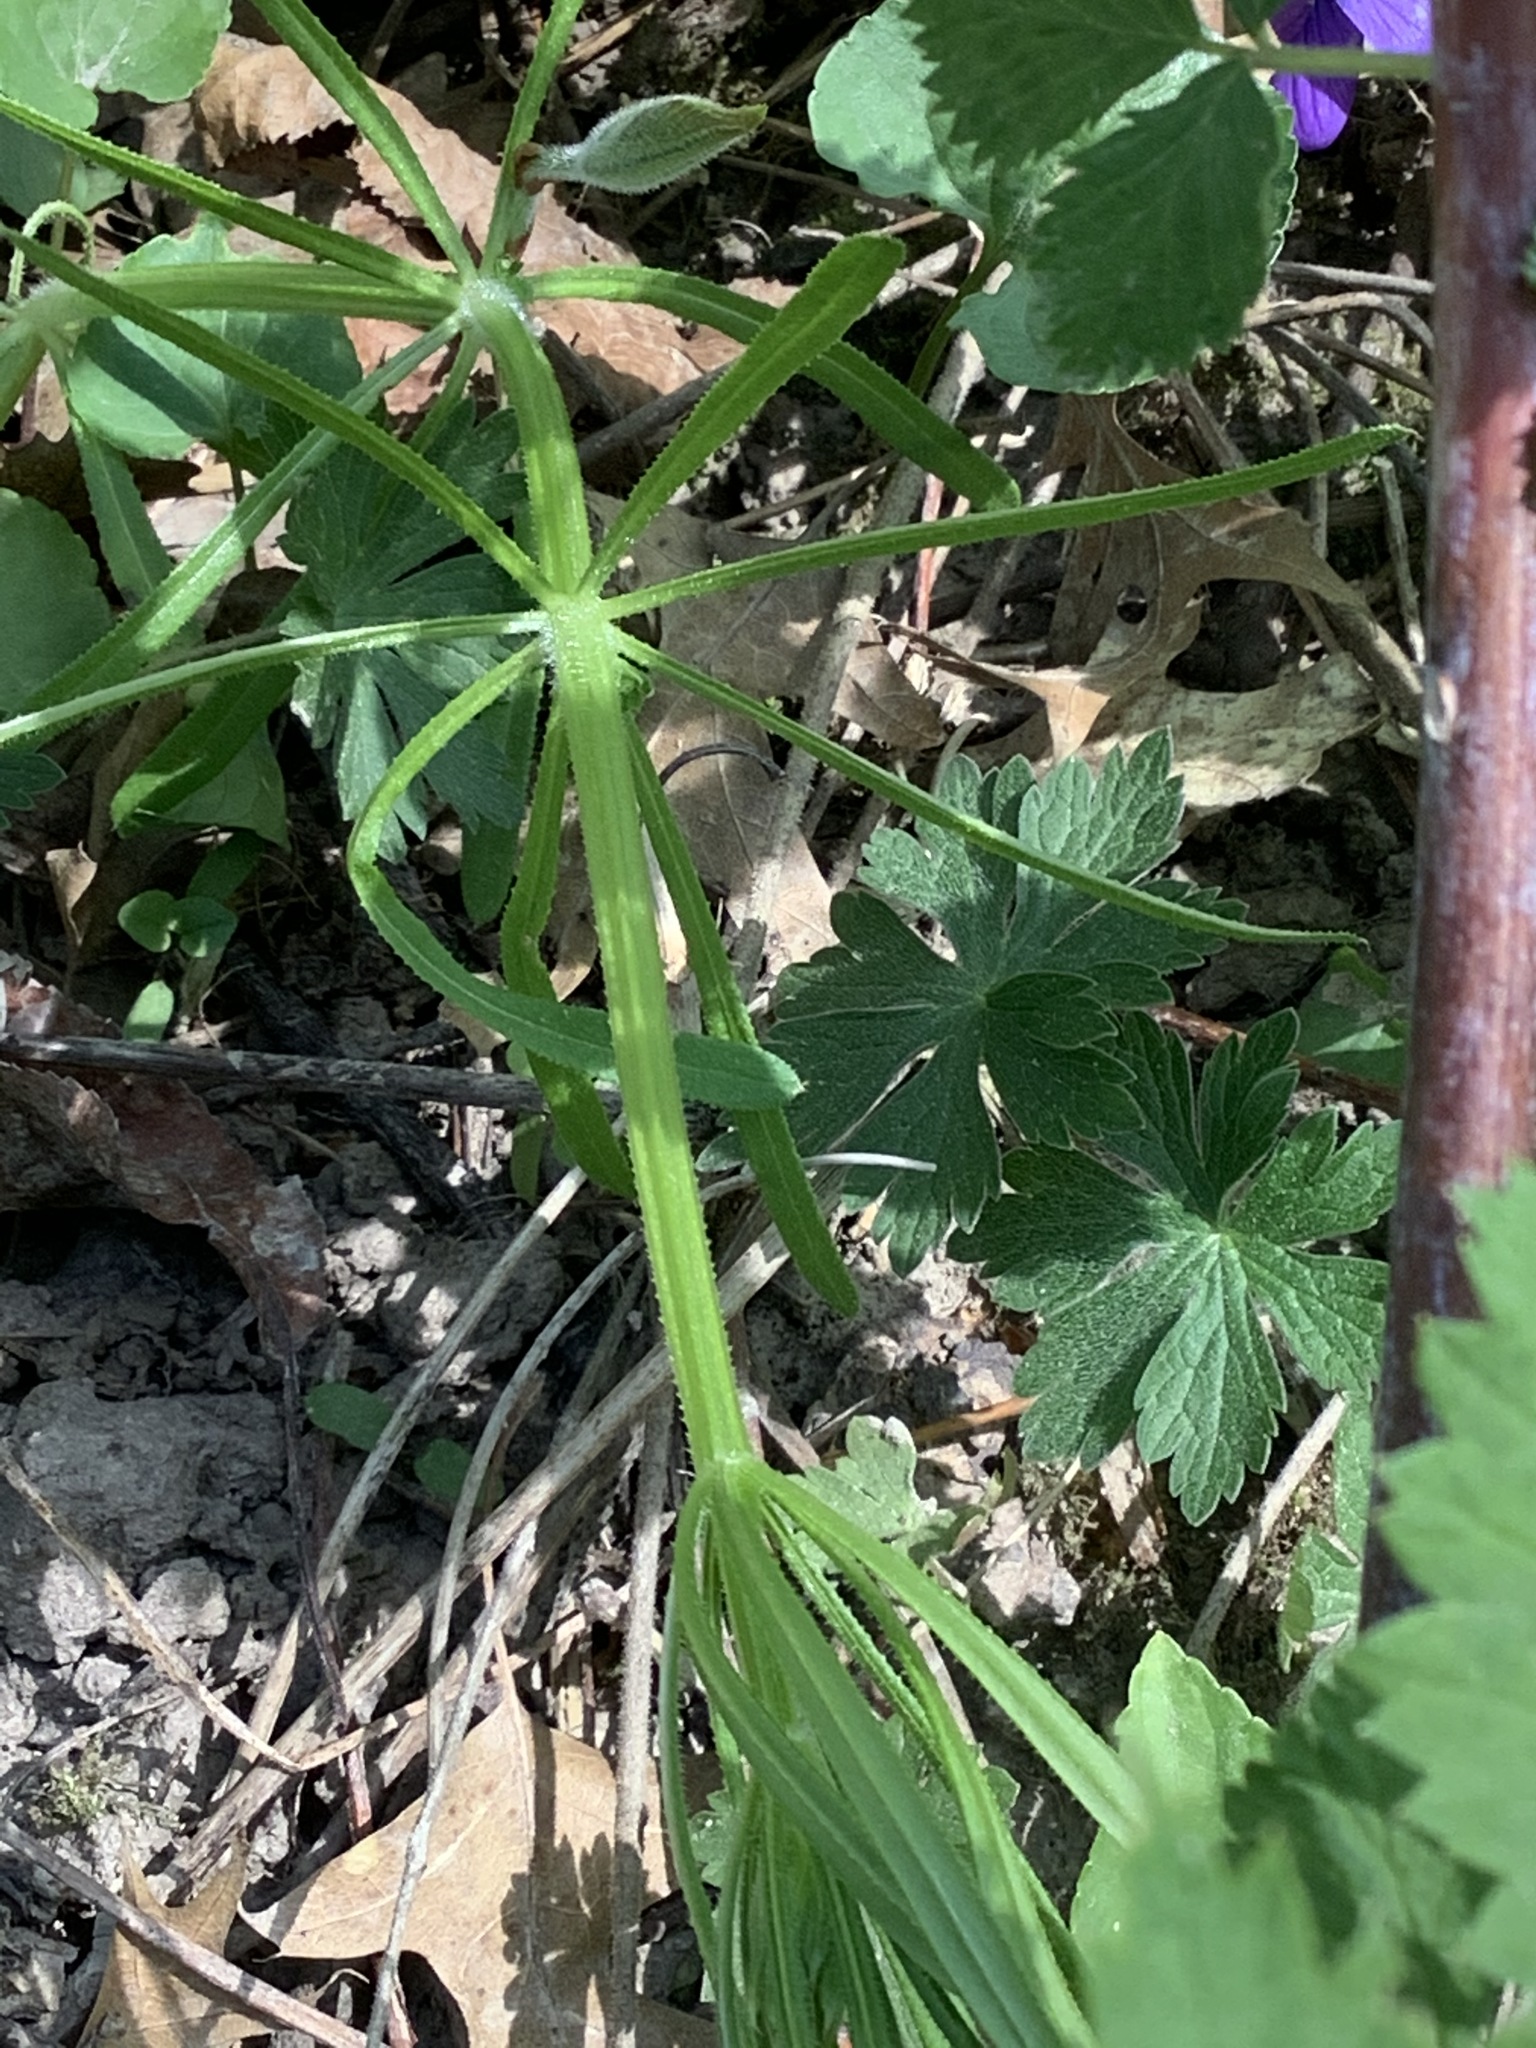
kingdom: Plantae
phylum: Tracheophyta
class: Magnoliopsida
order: Gentianales
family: Rubiaceae
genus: Galium
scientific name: Galium aparine
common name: Cleavers
